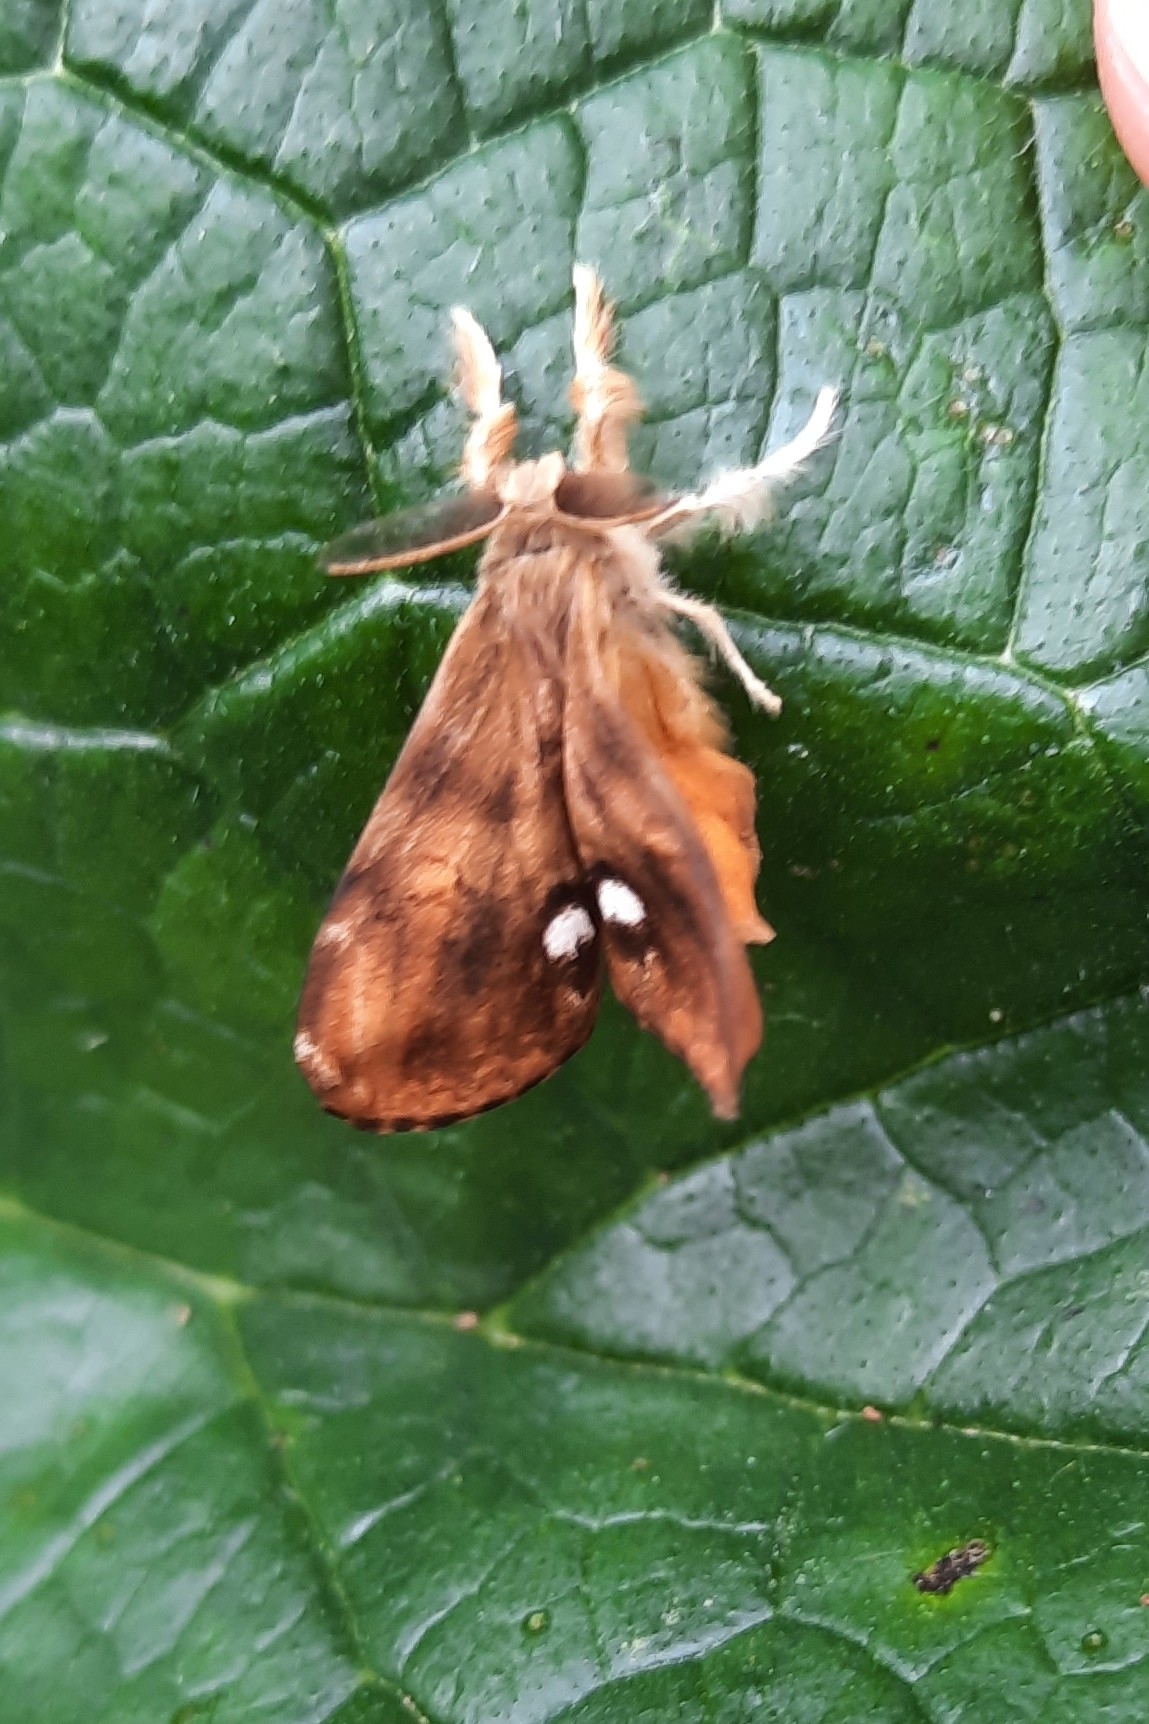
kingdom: Animalia
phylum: Arthropoda
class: Insecta
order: Lepidoptera
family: Erebidae
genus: Orgyia
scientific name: Orgyia antiqua
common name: Vapourer
